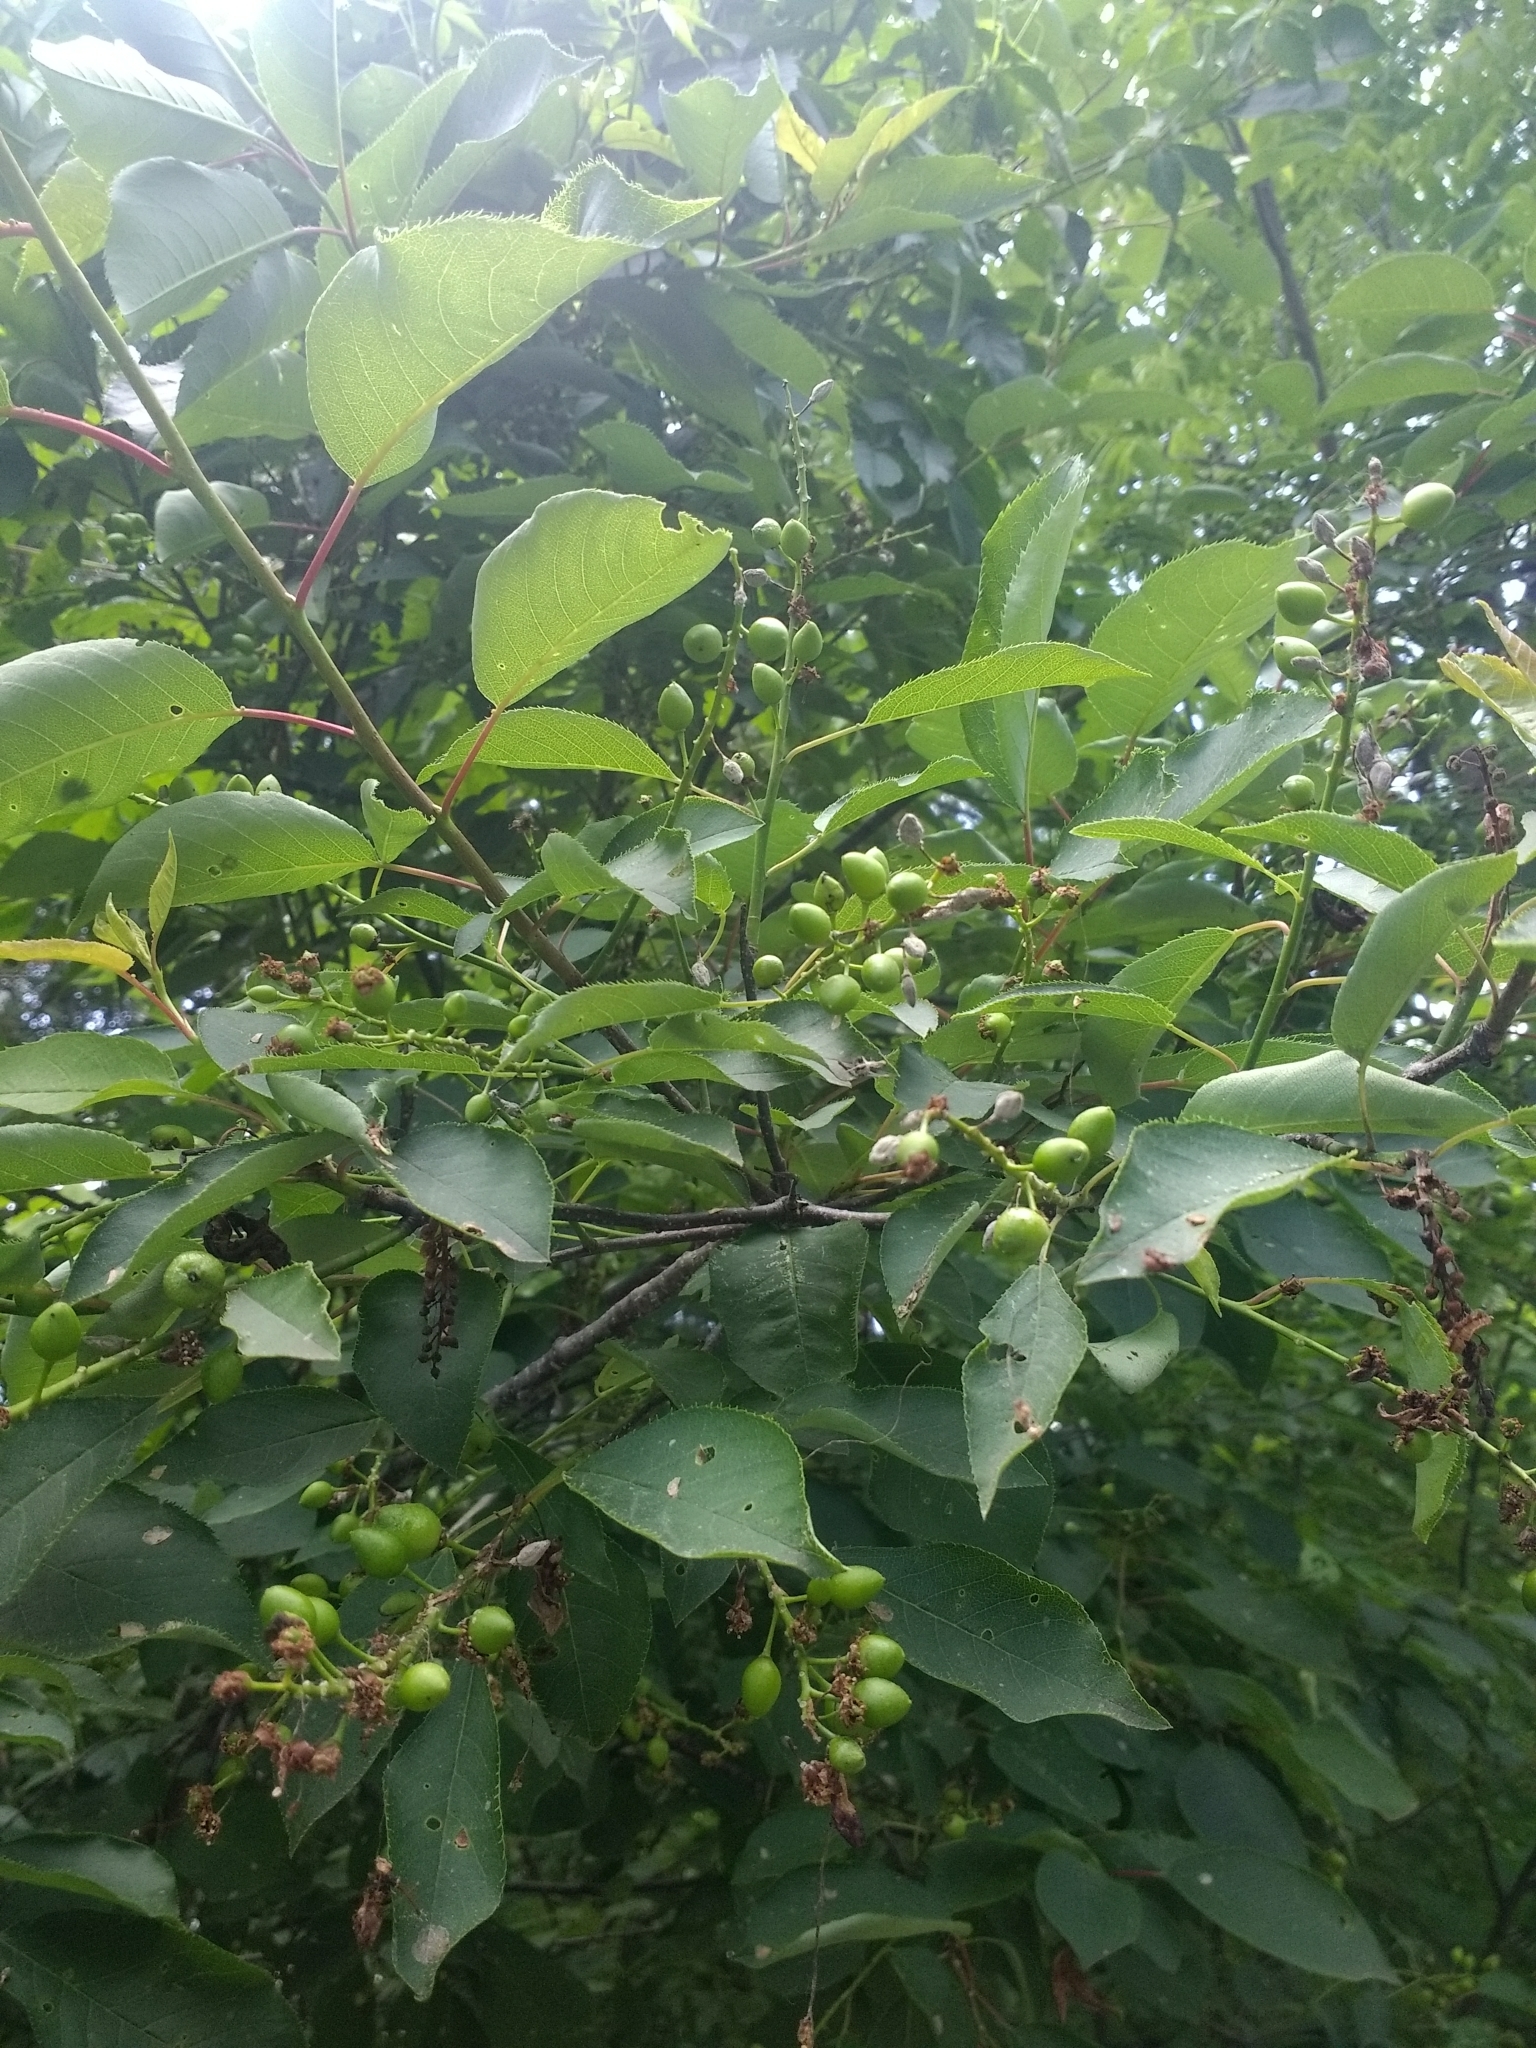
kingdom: Plantae
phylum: Tracheophyta
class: Magnoliopsida
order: Rosales
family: Rosaceae
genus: Prunus
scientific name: Prunus virginiana
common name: Chokecherry
